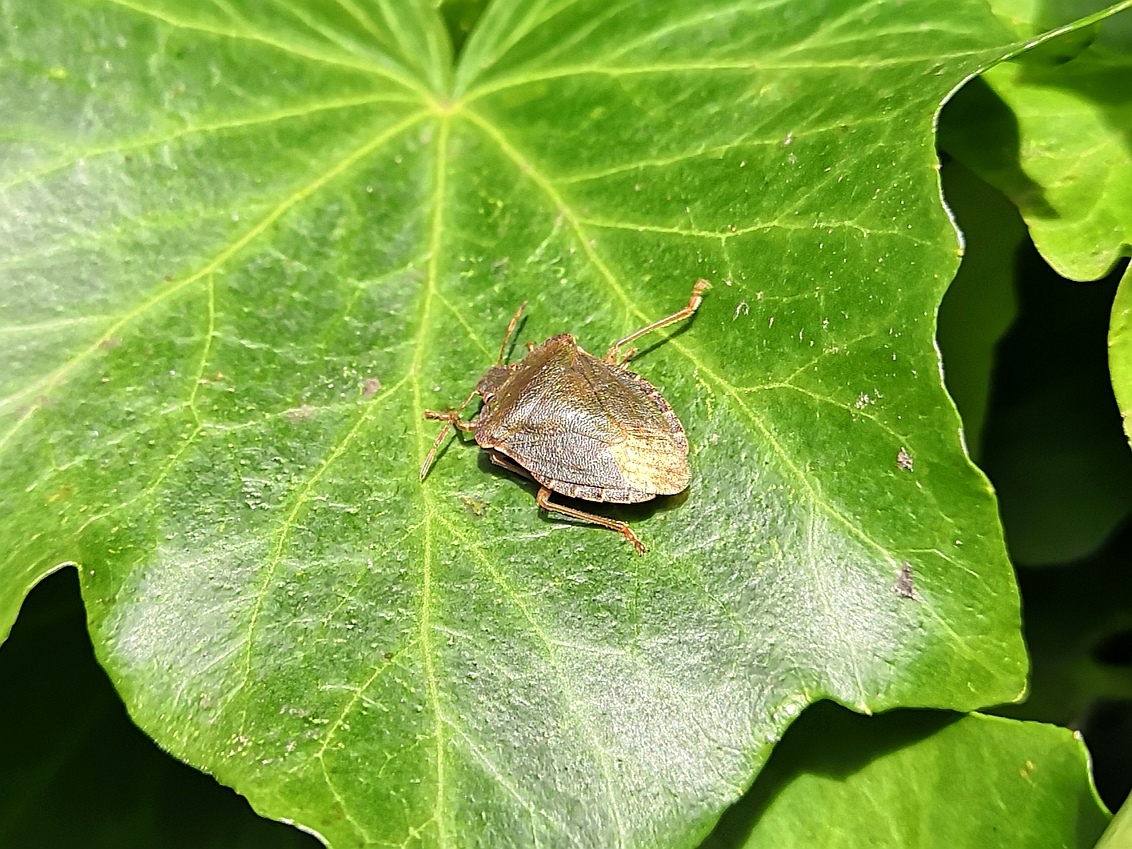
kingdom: Animalia
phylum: Arthropoda
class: Insecta
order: Hemiptera
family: Pentatomidae
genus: Palomena
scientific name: Palomena prasina
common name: Green shieldbug
